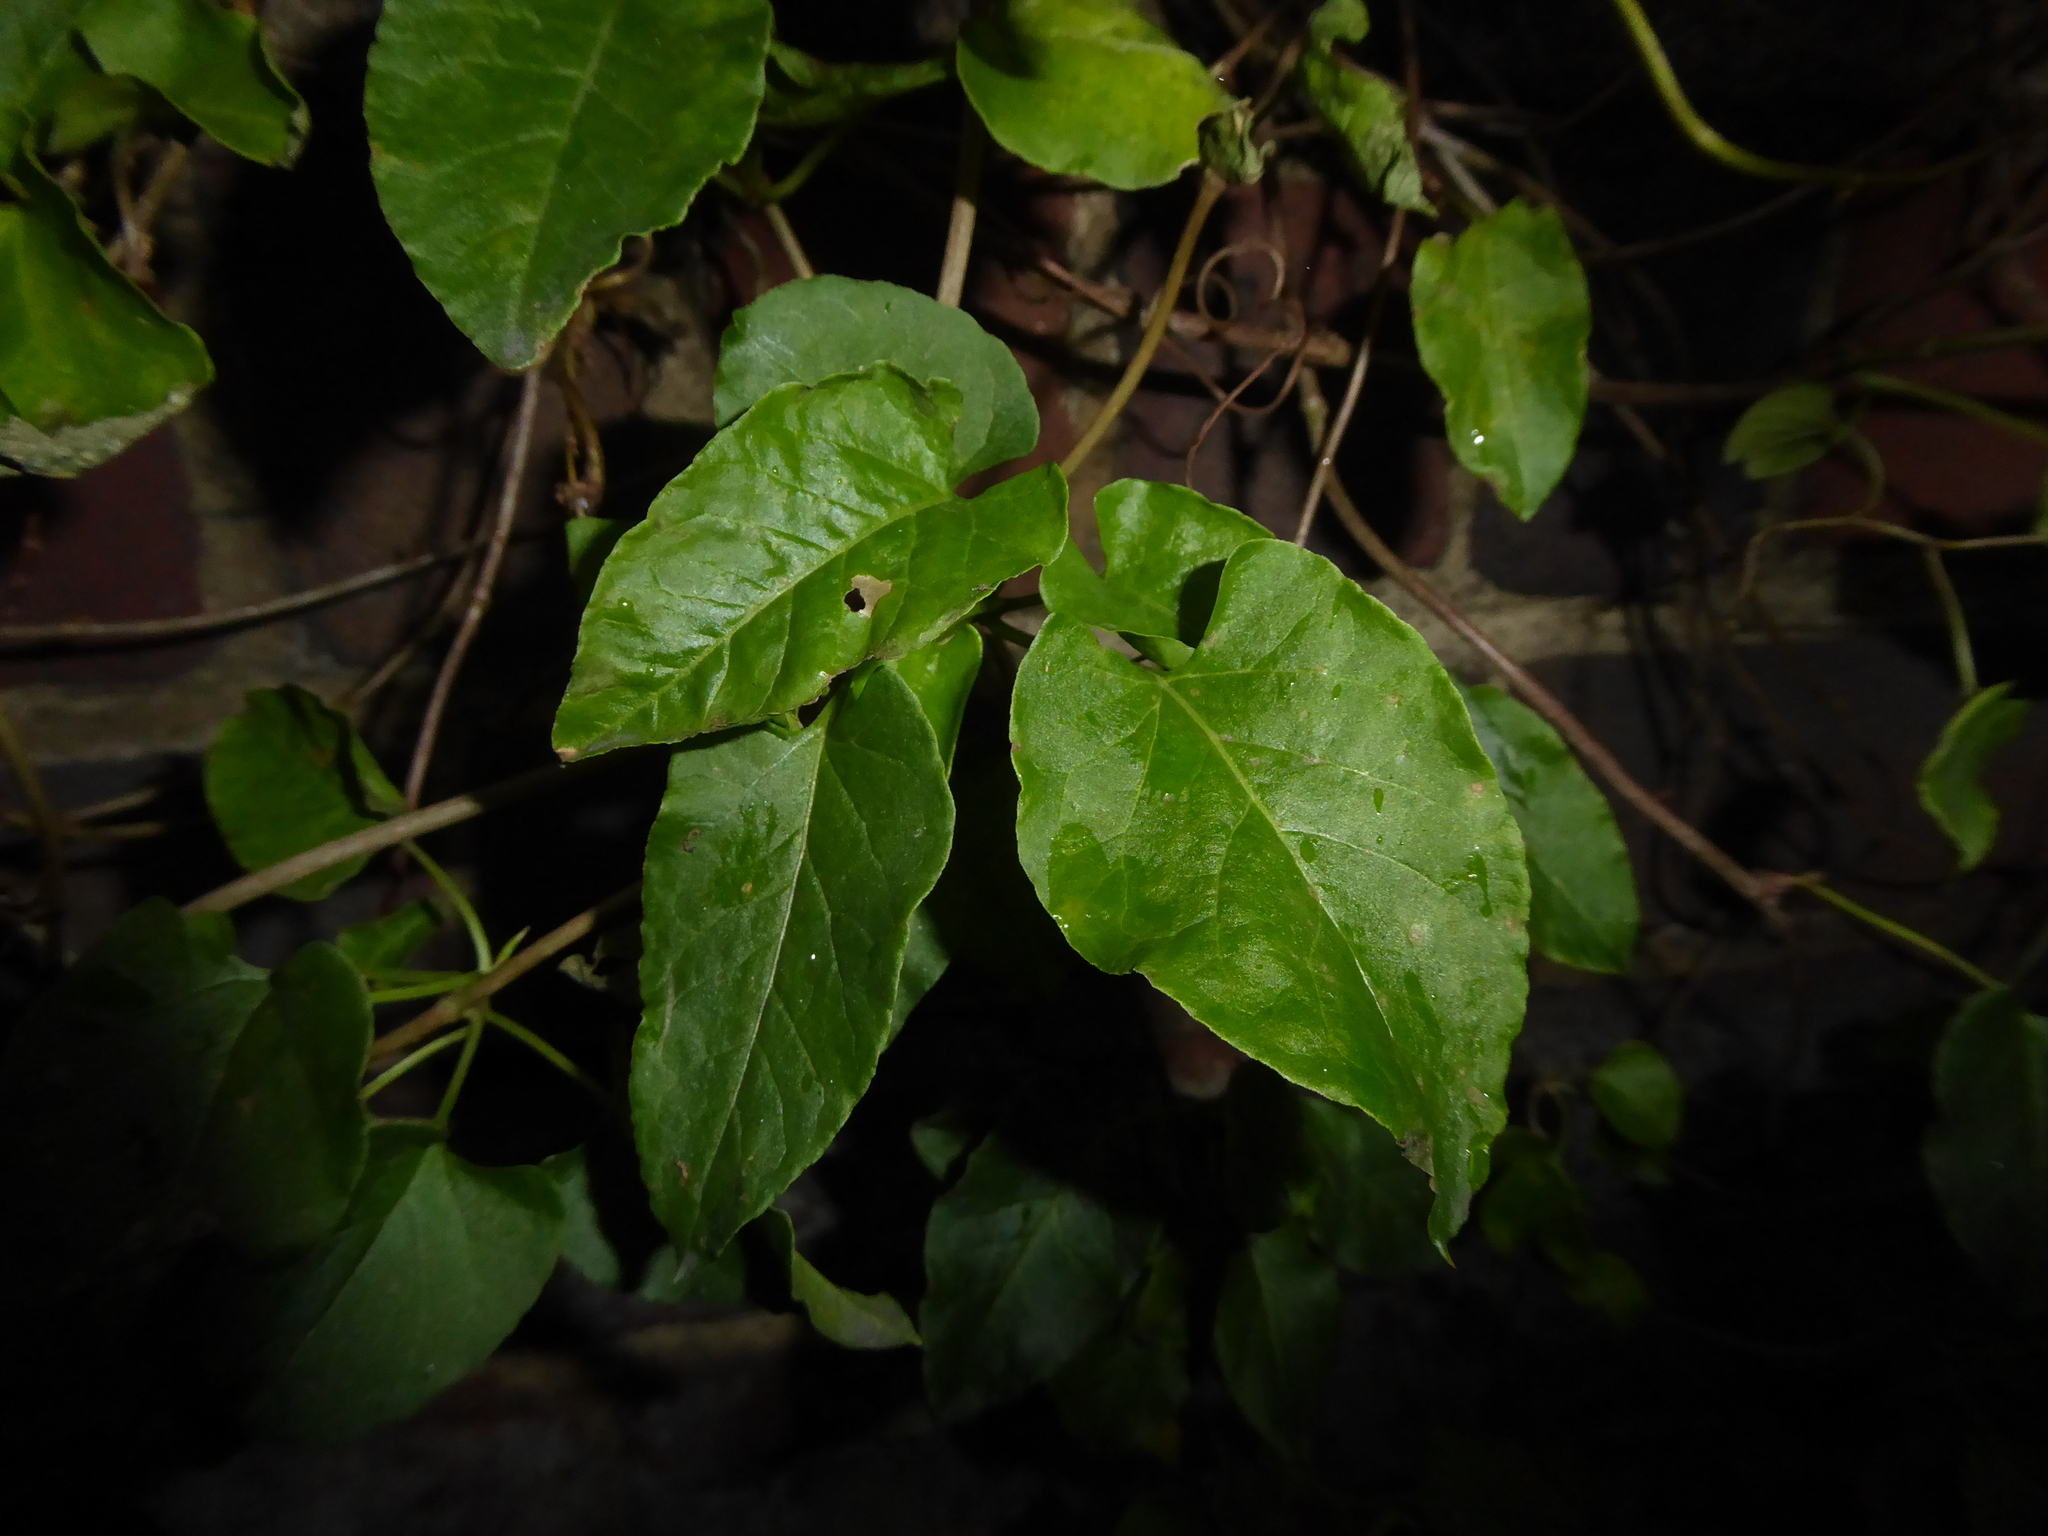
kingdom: Plantae
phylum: Tracheophyta
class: Magnoliopsida
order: Caryophyllales
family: Polygonaceae
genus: Fallopia
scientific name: Fallopia baldschuanica
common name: Russian-vine
